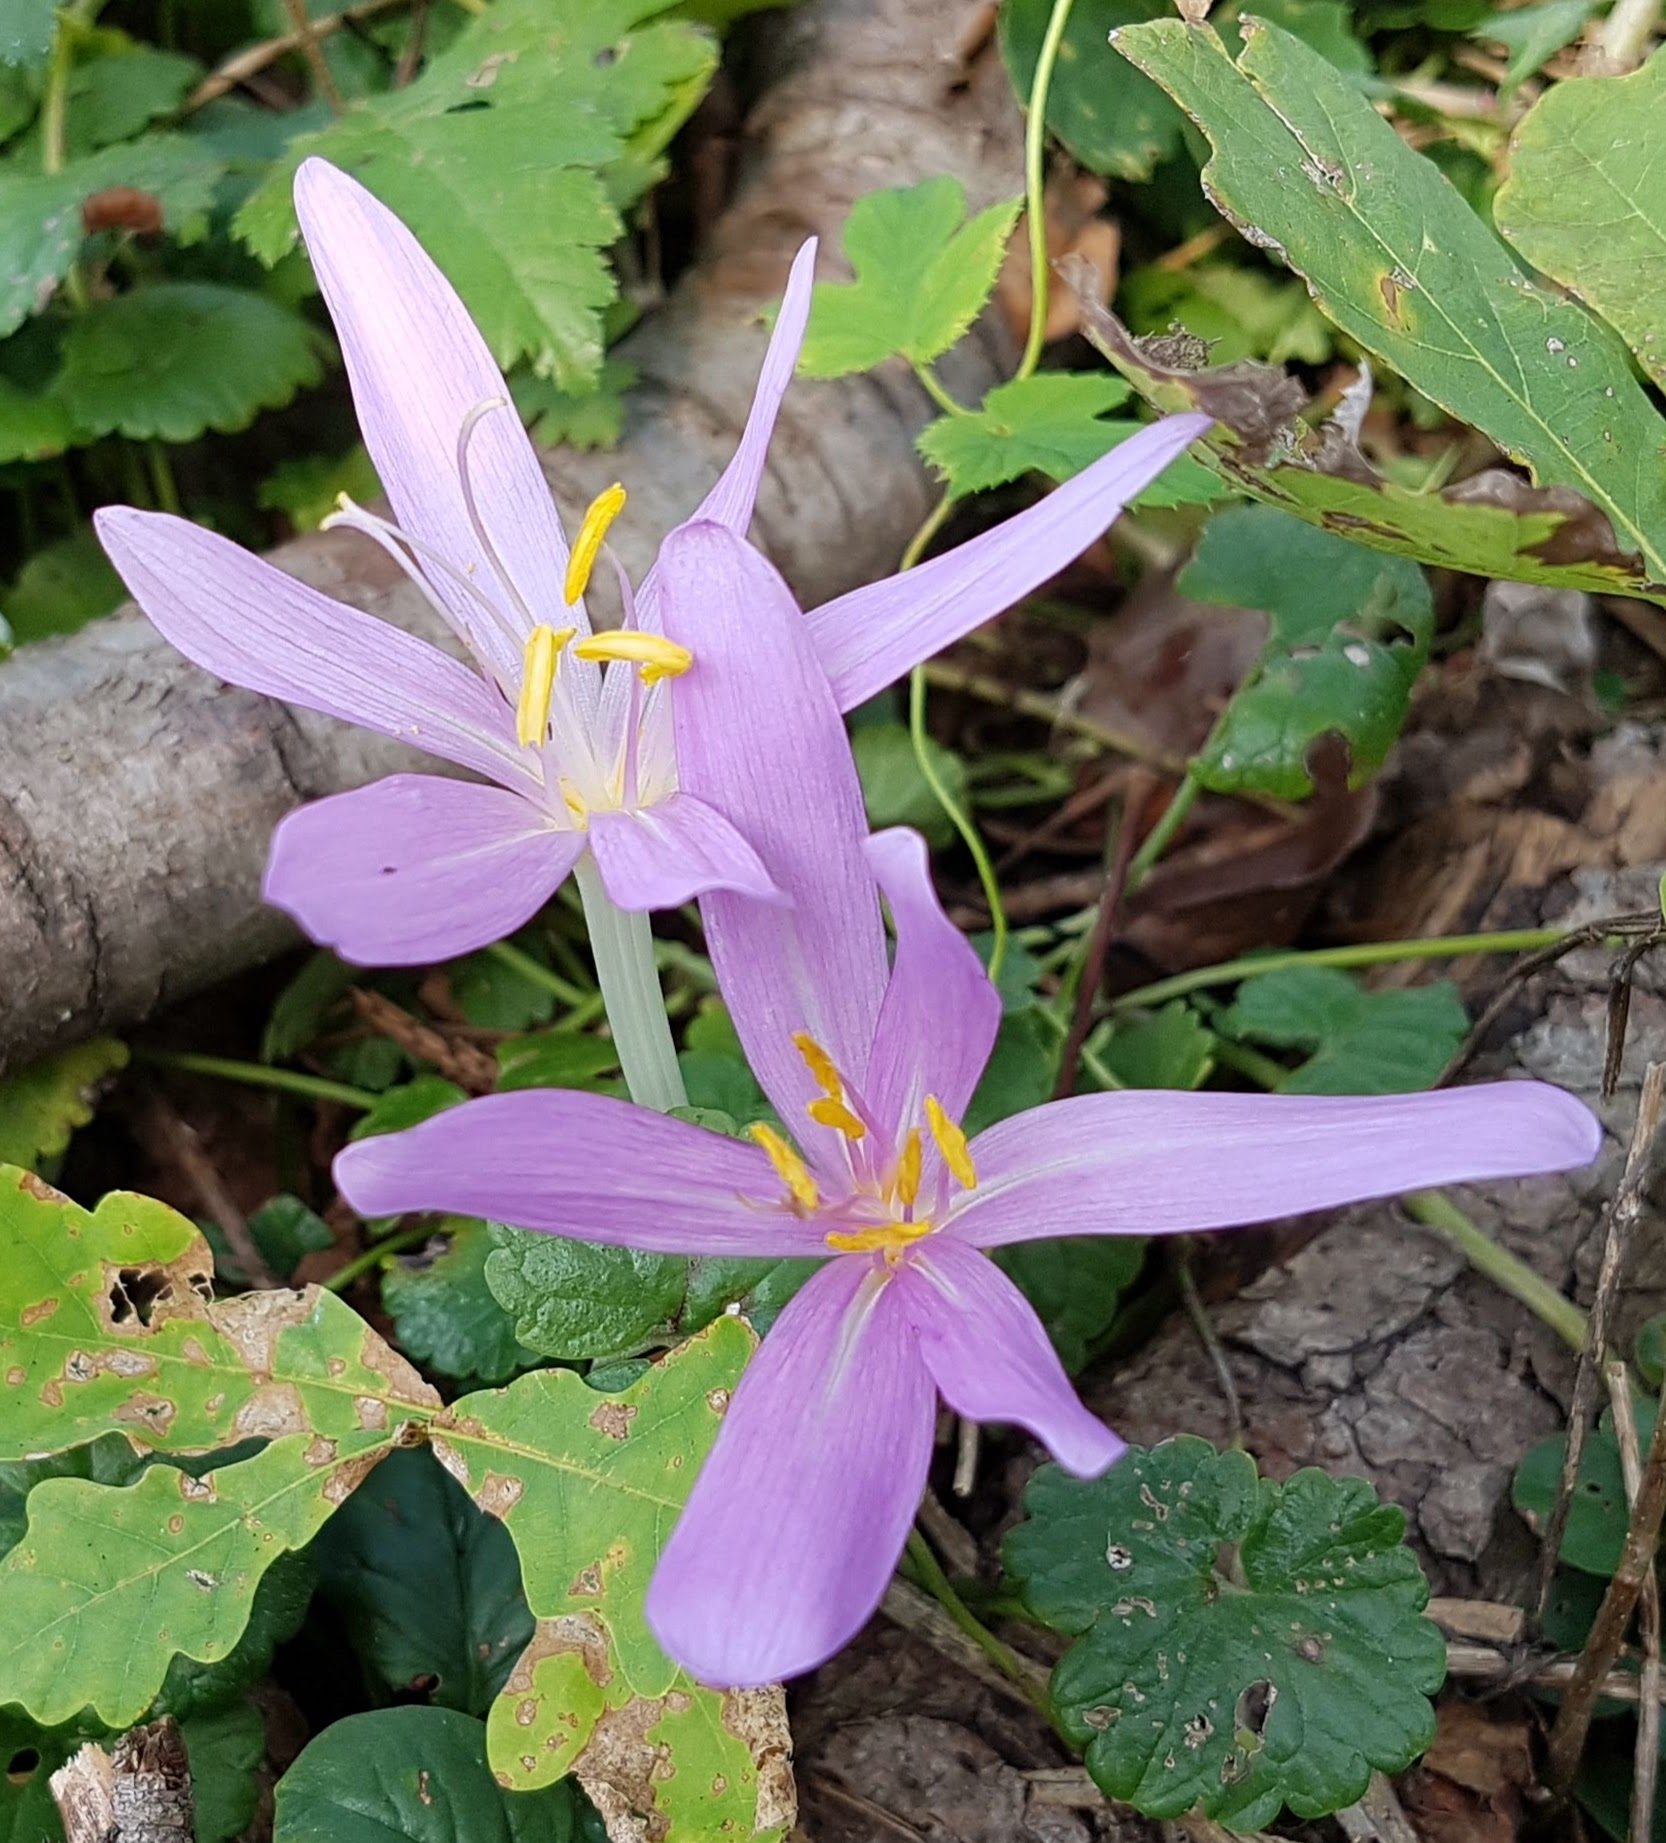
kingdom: Plantae
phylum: Tracheophyta
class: Liliopsida
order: Liliales
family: Colchicaceae
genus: Colchicum
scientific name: Colchicum autumnale
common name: Autumn crocus
